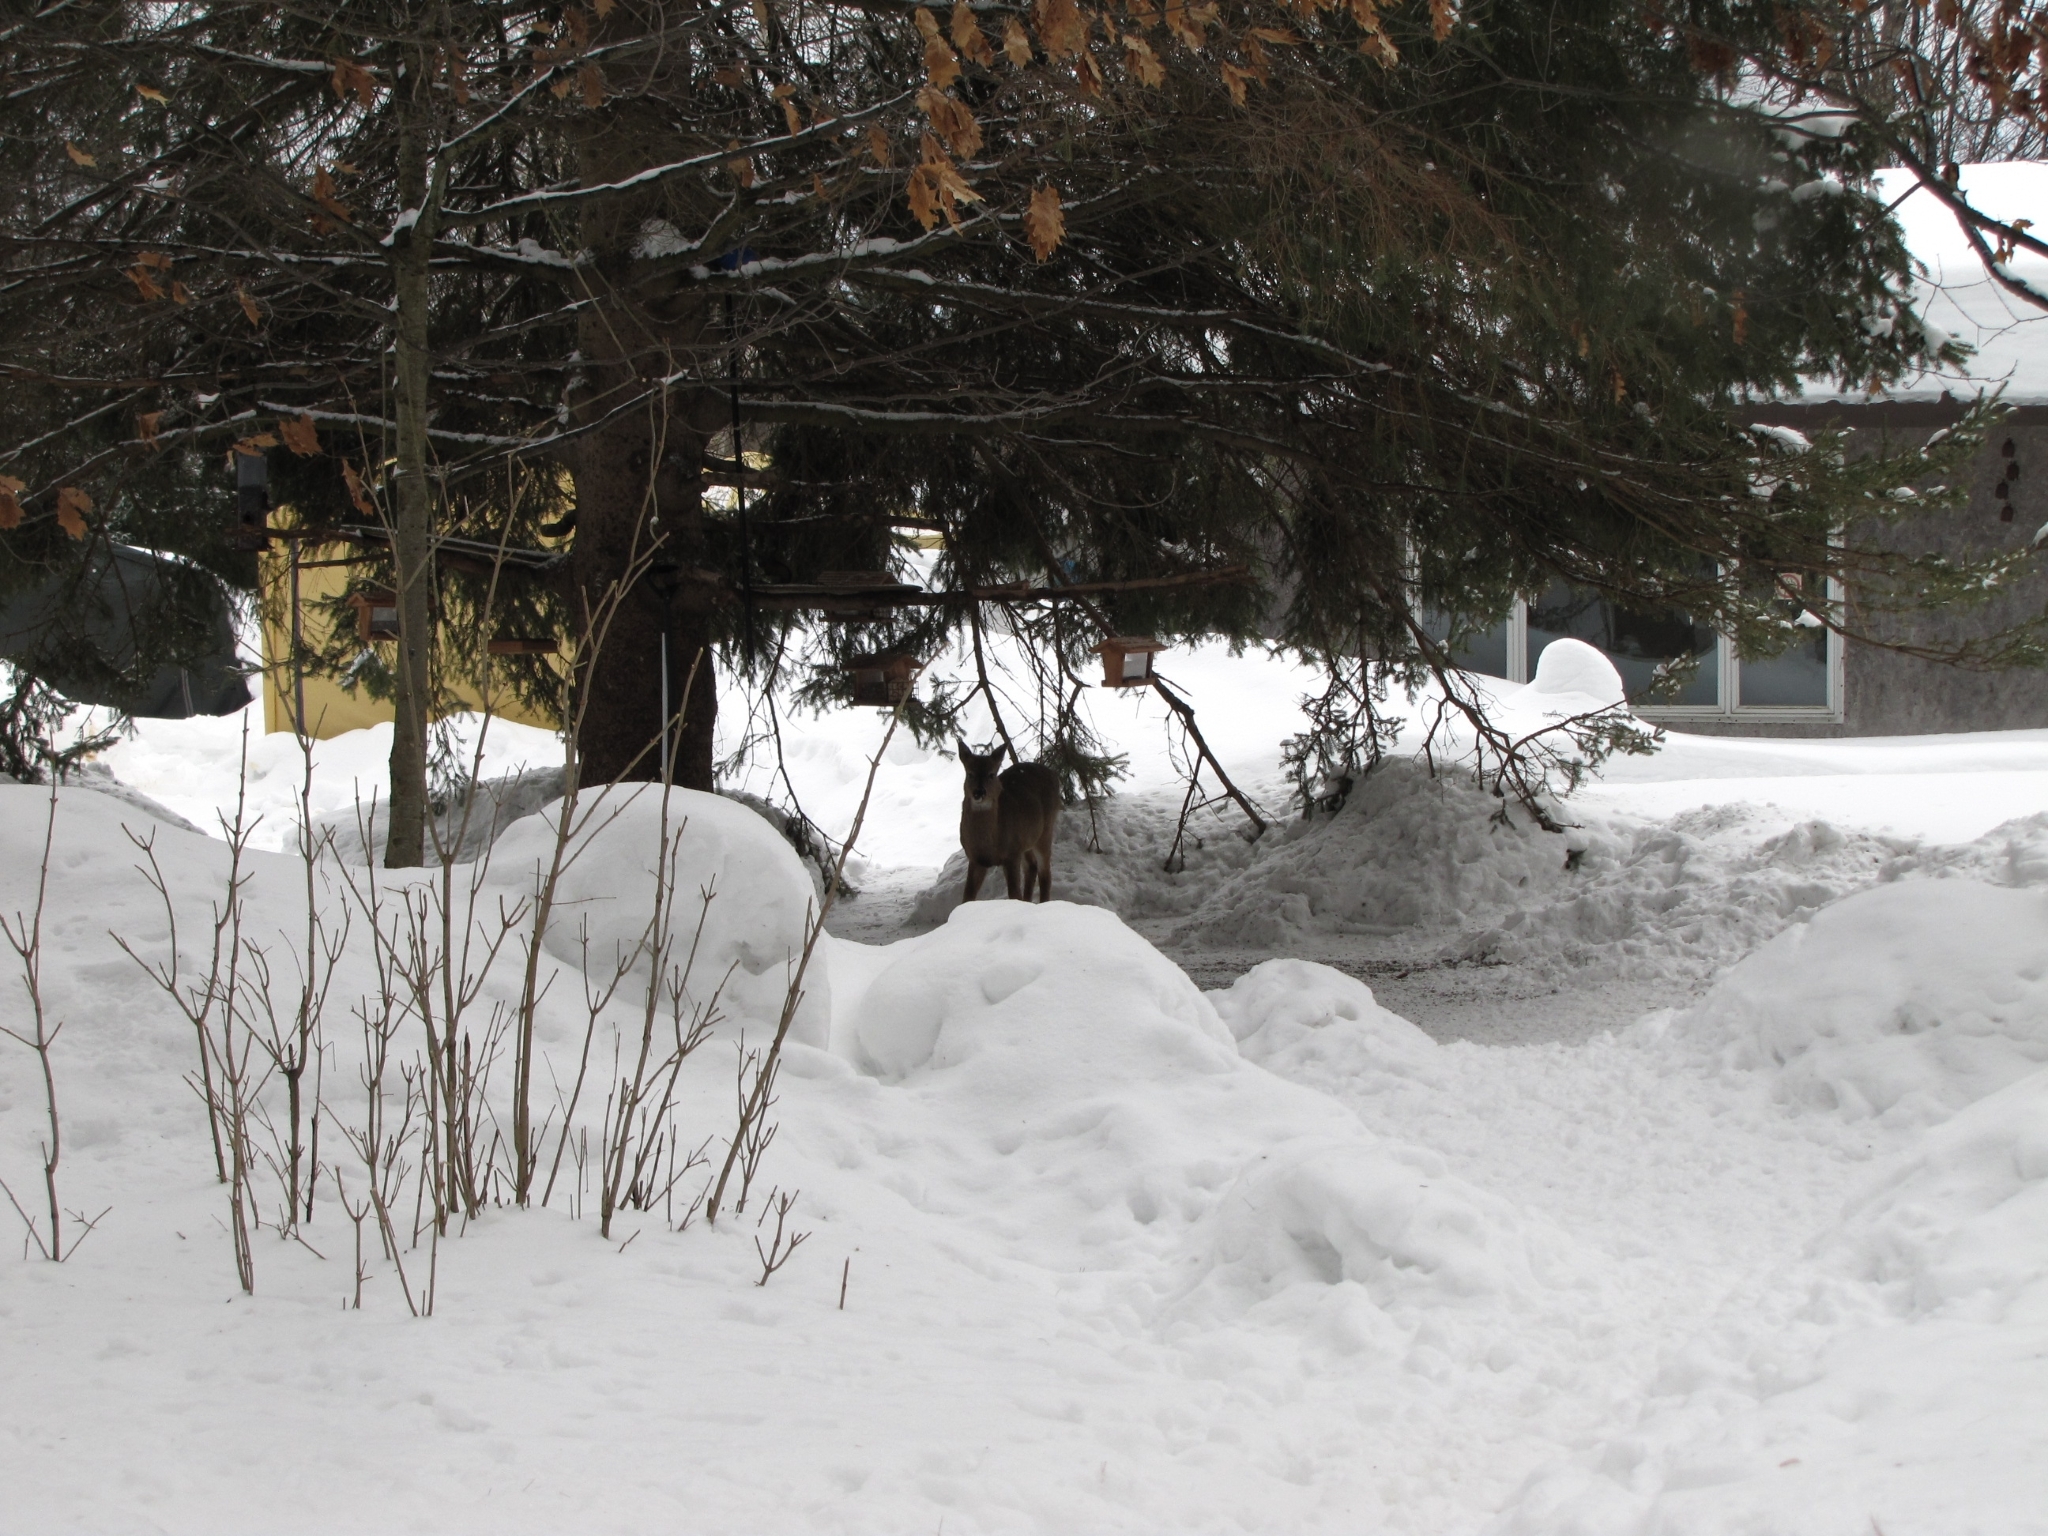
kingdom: Animalia
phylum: Chordata
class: Mammalia
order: Artiodactyla
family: Cervidae
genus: Odocoileus
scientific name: Odocoileus virginianus
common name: White-tailed deer
